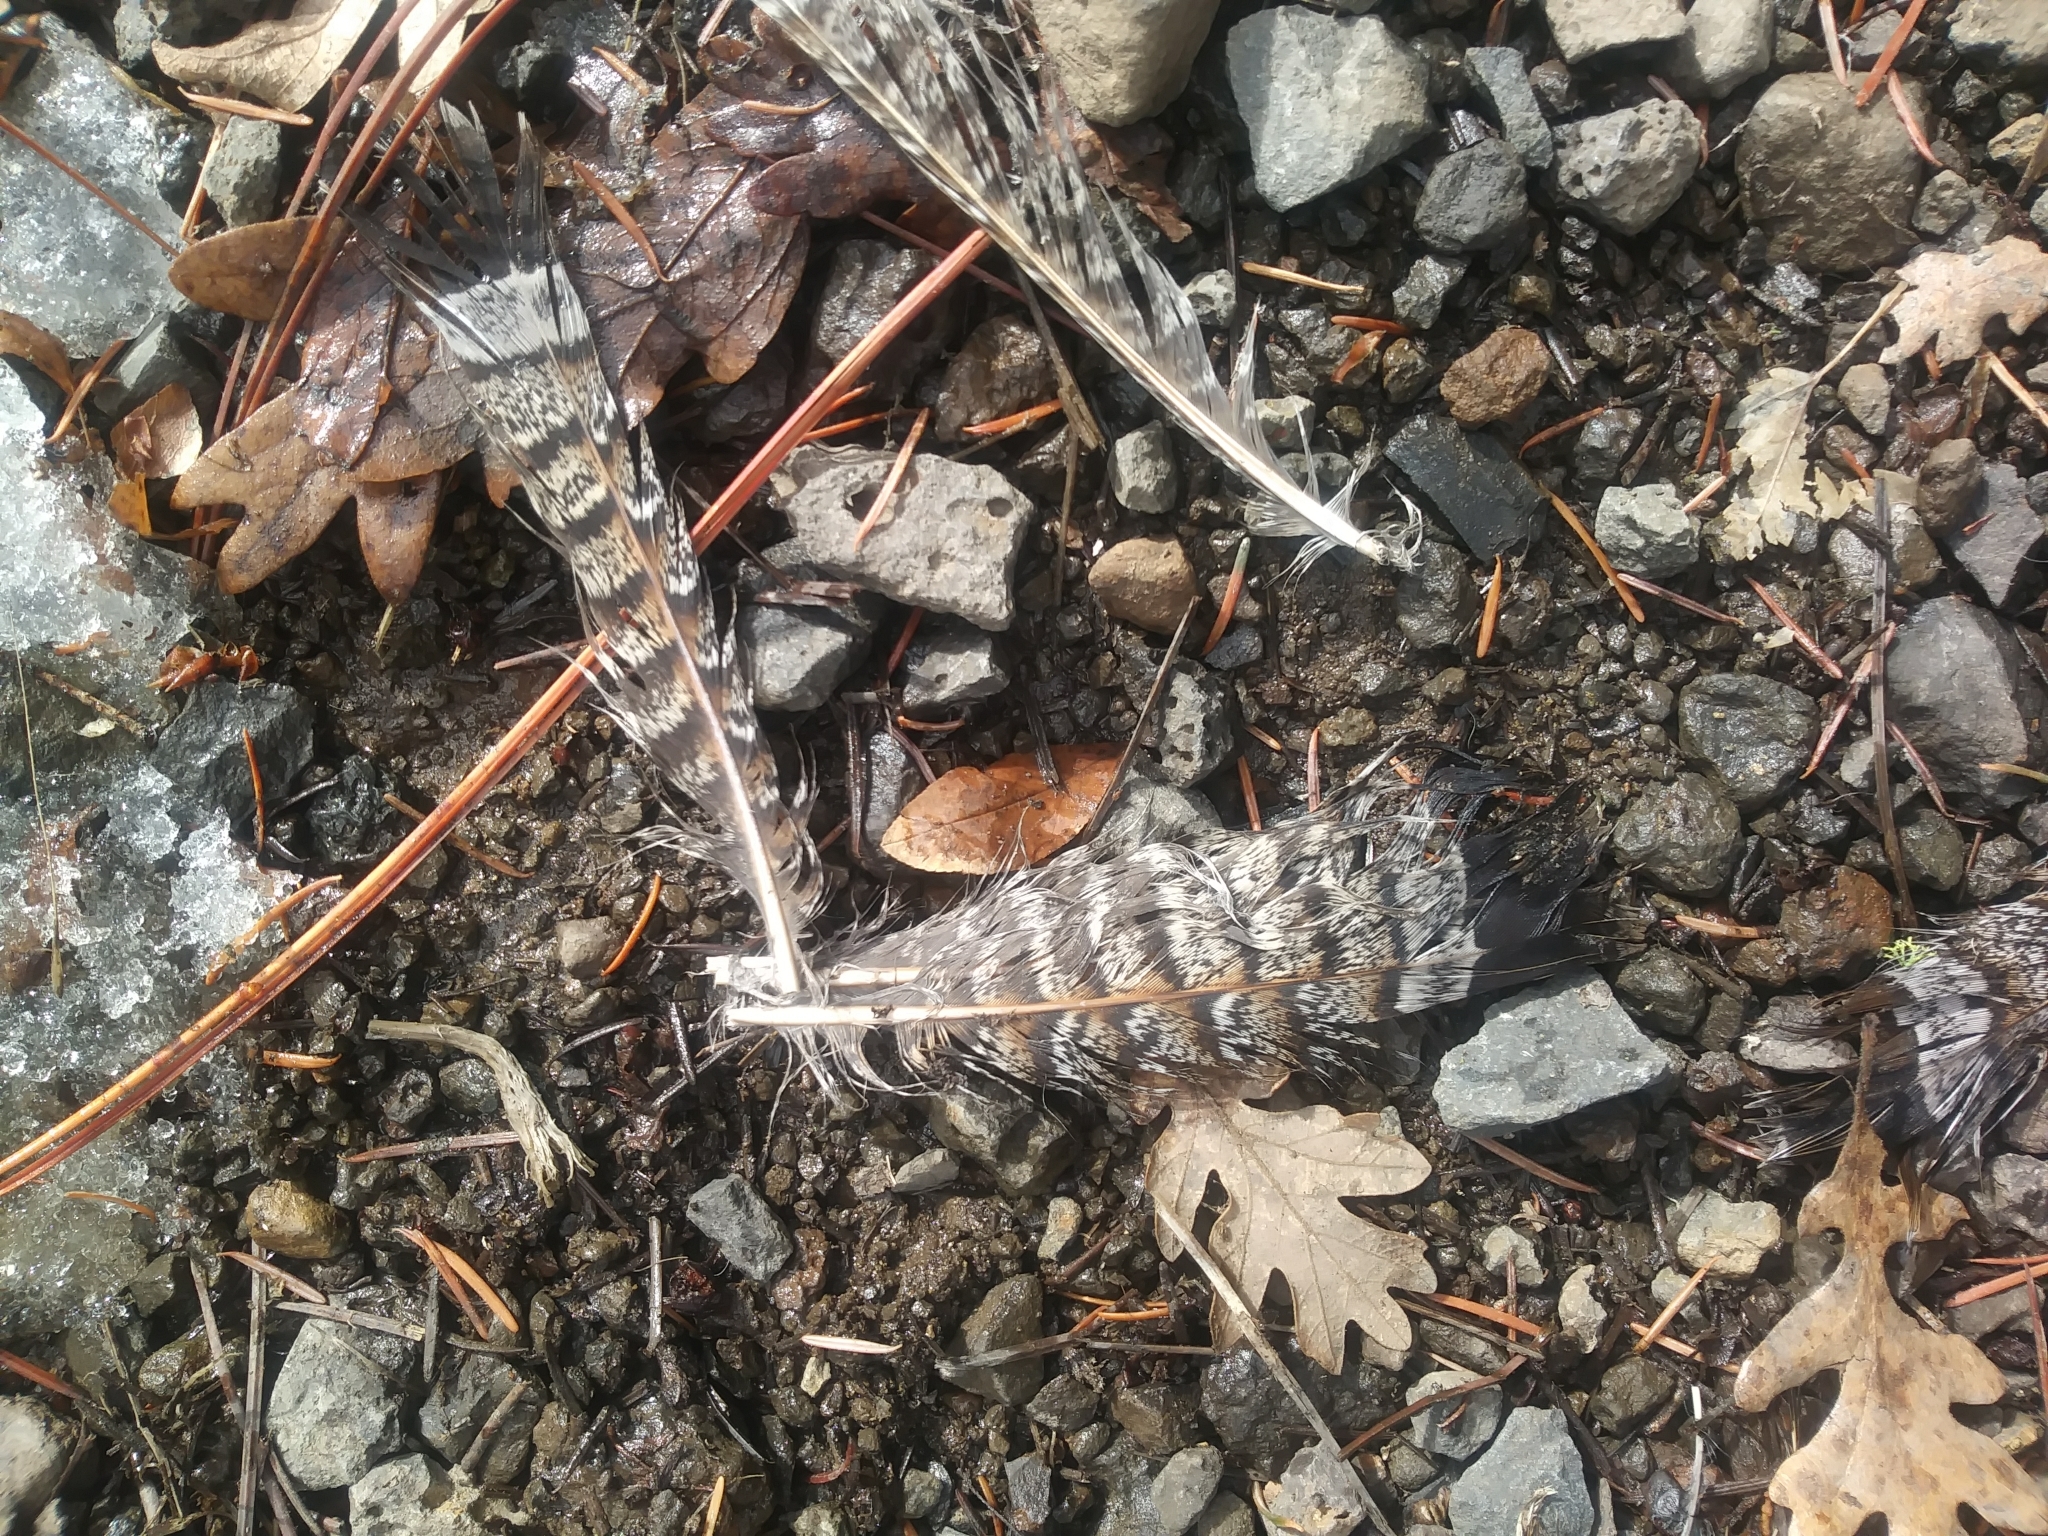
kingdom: Animalia
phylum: Chordata
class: Aves
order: Galliformes
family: Phasianidae
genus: Bonasa
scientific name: Bonasa umbellus
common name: Ruffed grouse
